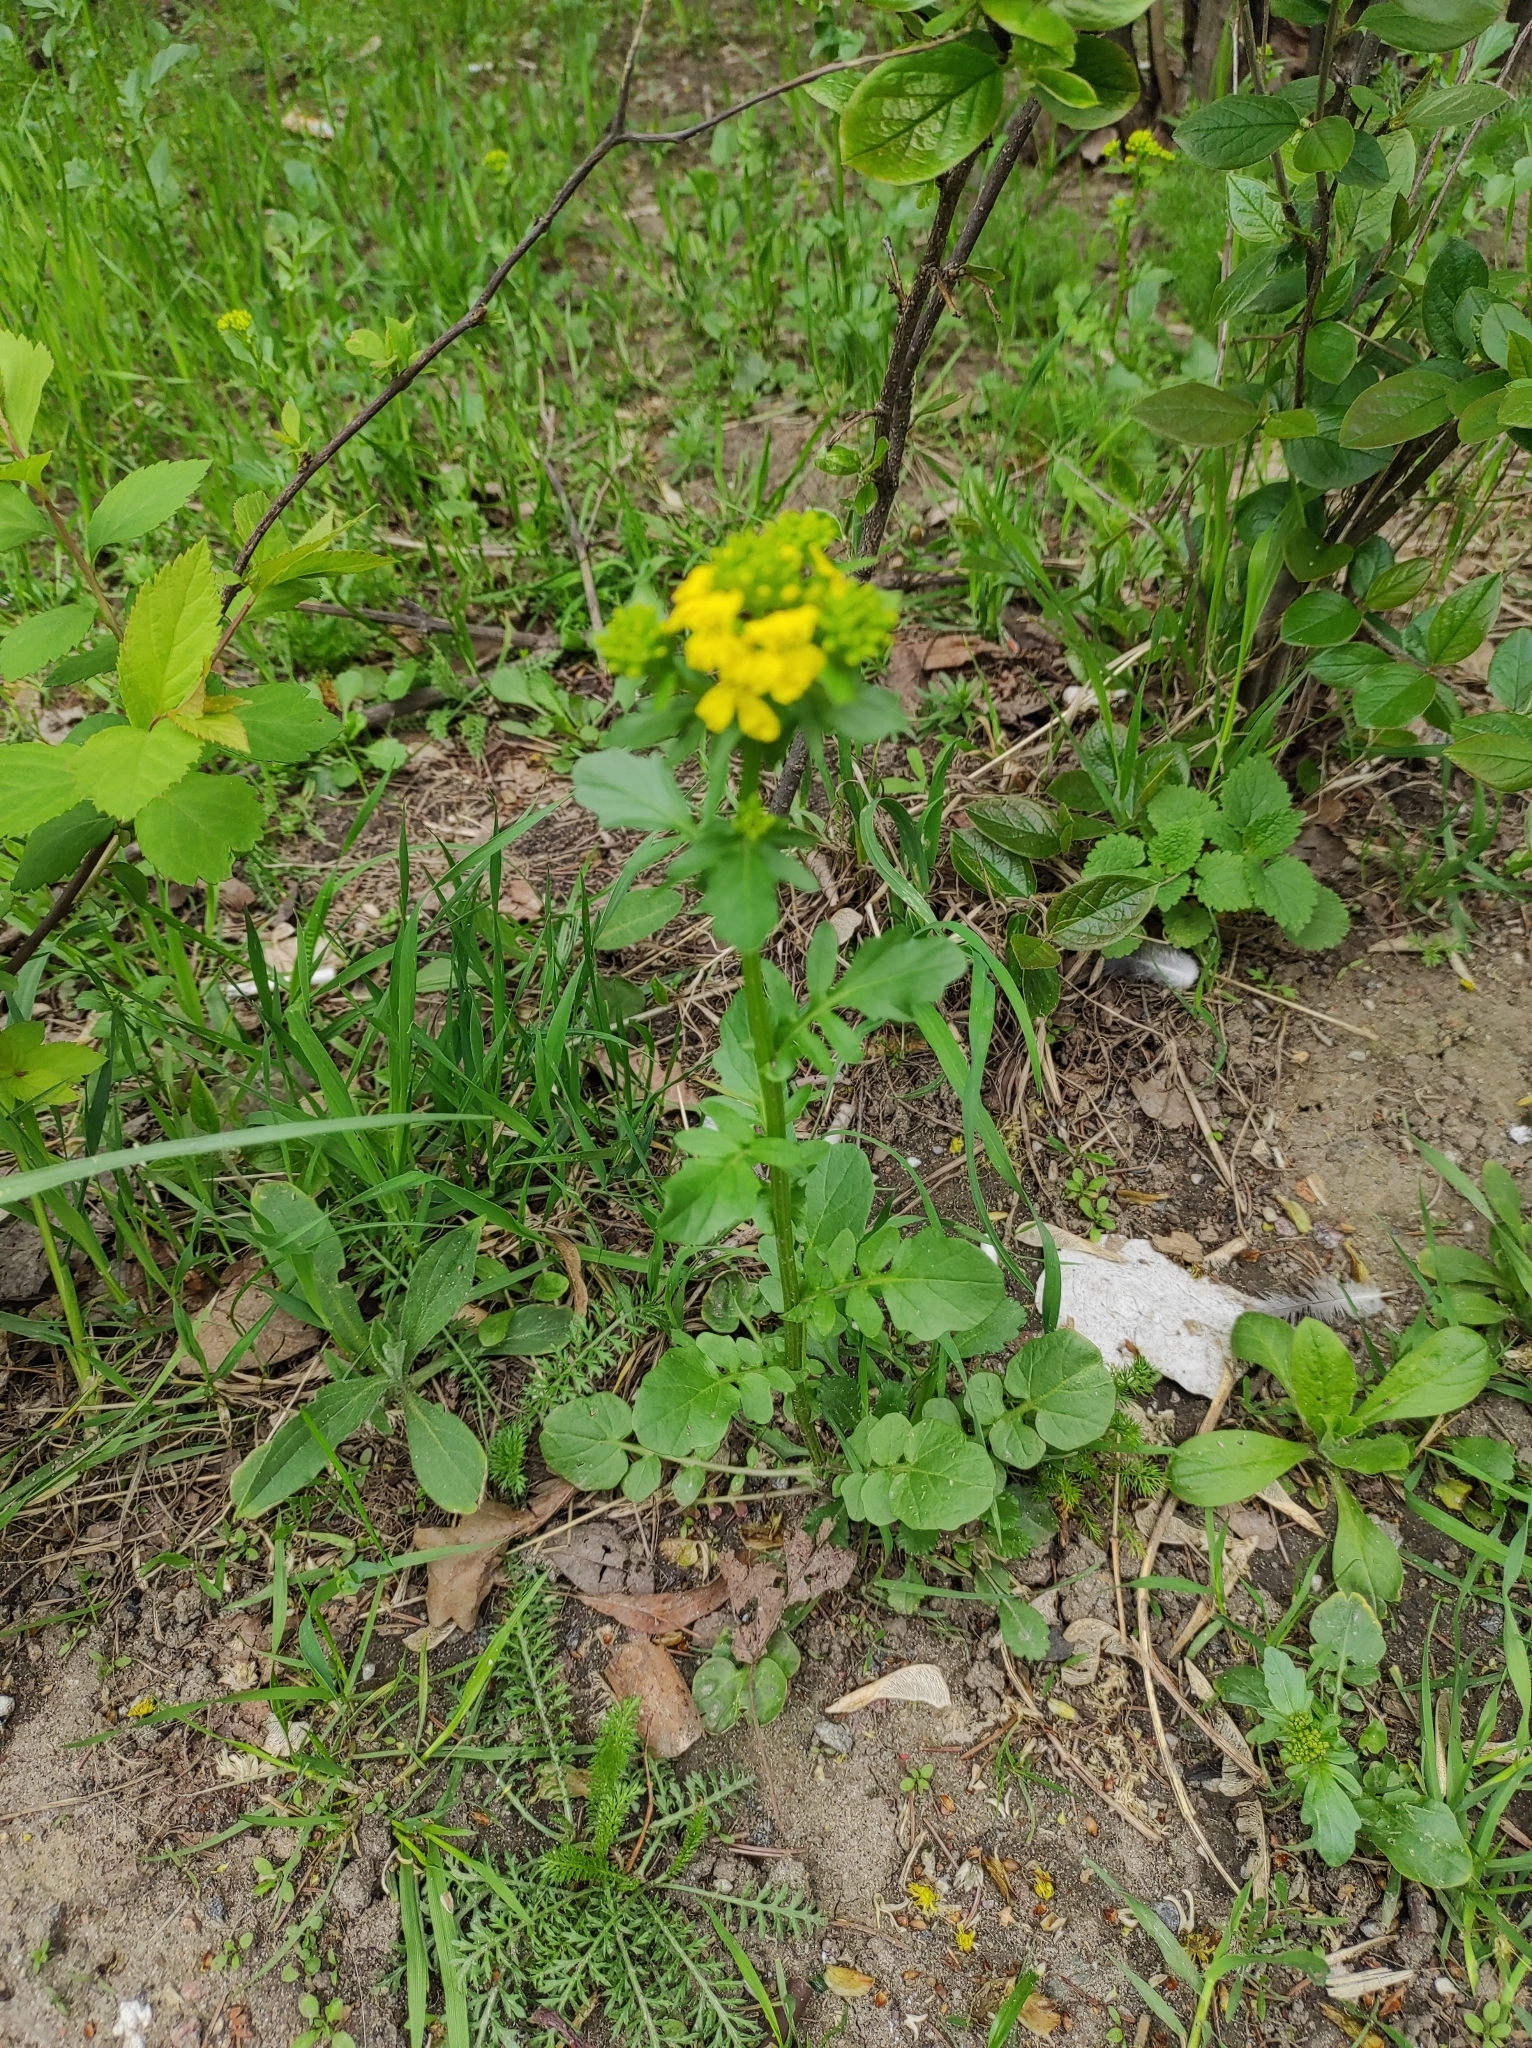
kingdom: Plantae
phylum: Tracheophyta
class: Magnoliopsida
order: Brassicales
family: Brassicaceae
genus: Barbarea
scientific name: Barbarea vulgaris
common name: Cressy-greens
